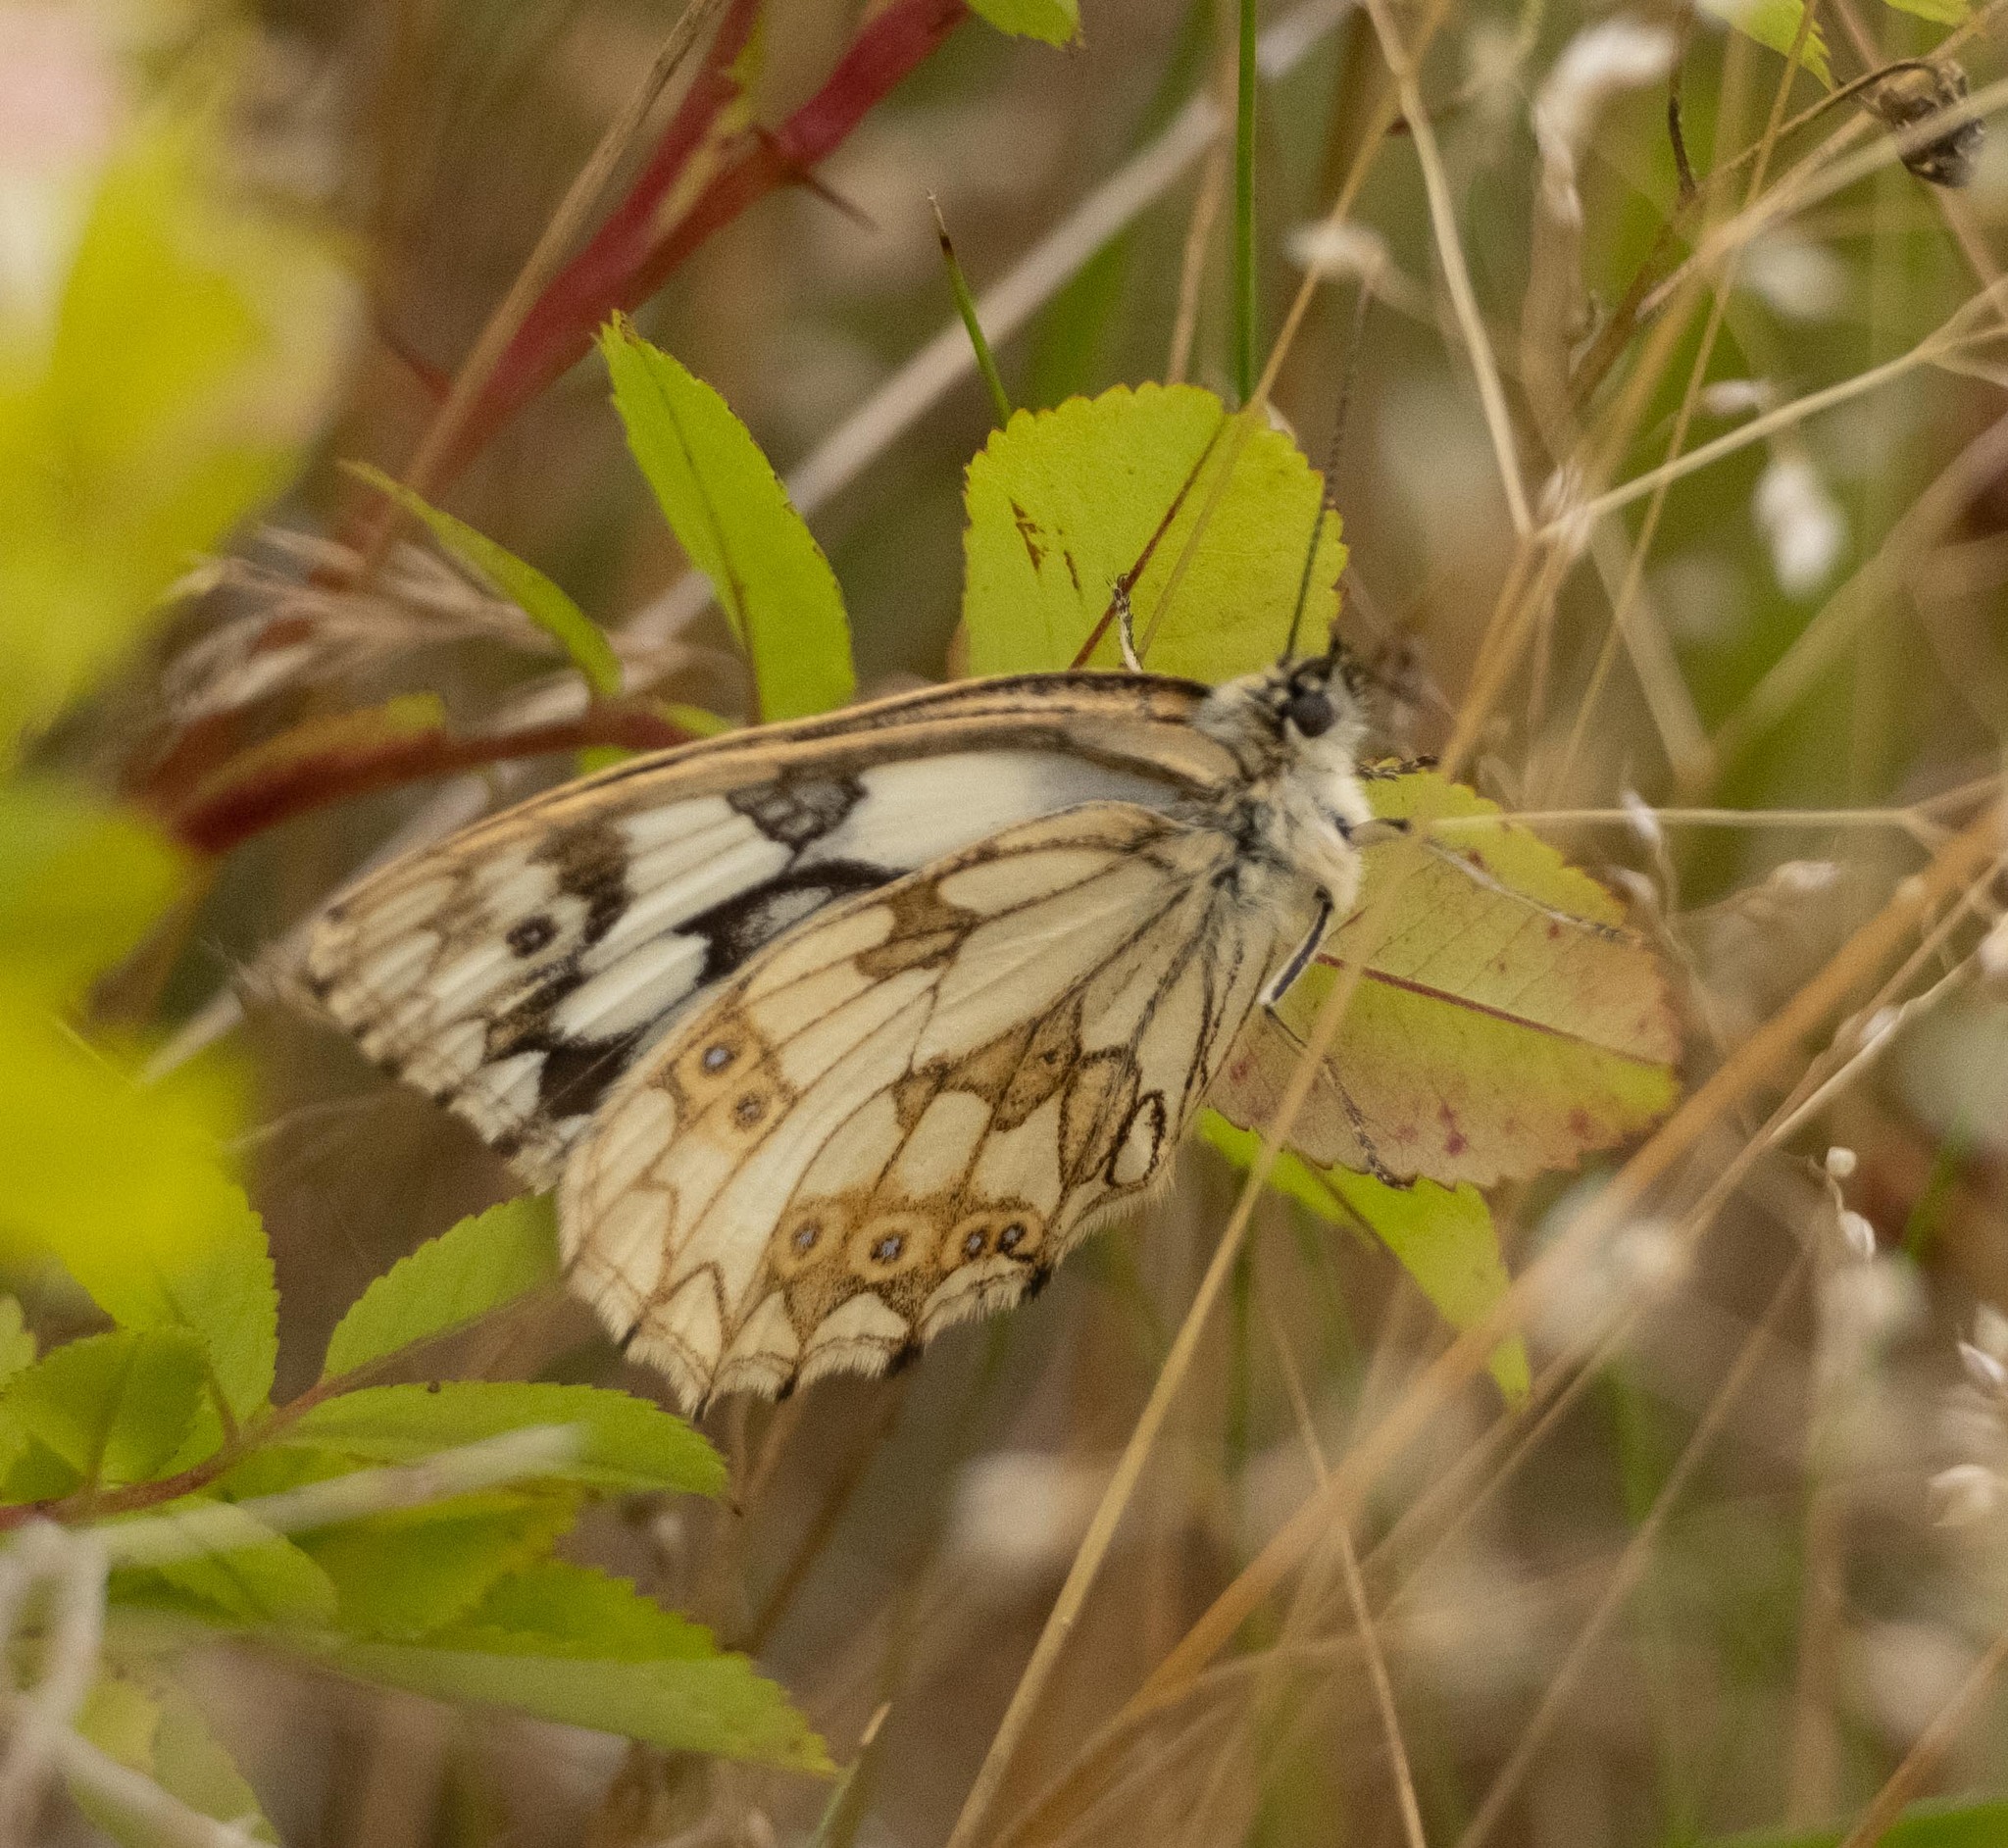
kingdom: Animalia
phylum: Arthropoda
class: Insecta
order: Lepidoptera
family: Nymphalidae
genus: Melanargia
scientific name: Melanargia galathea
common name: Marbled white
